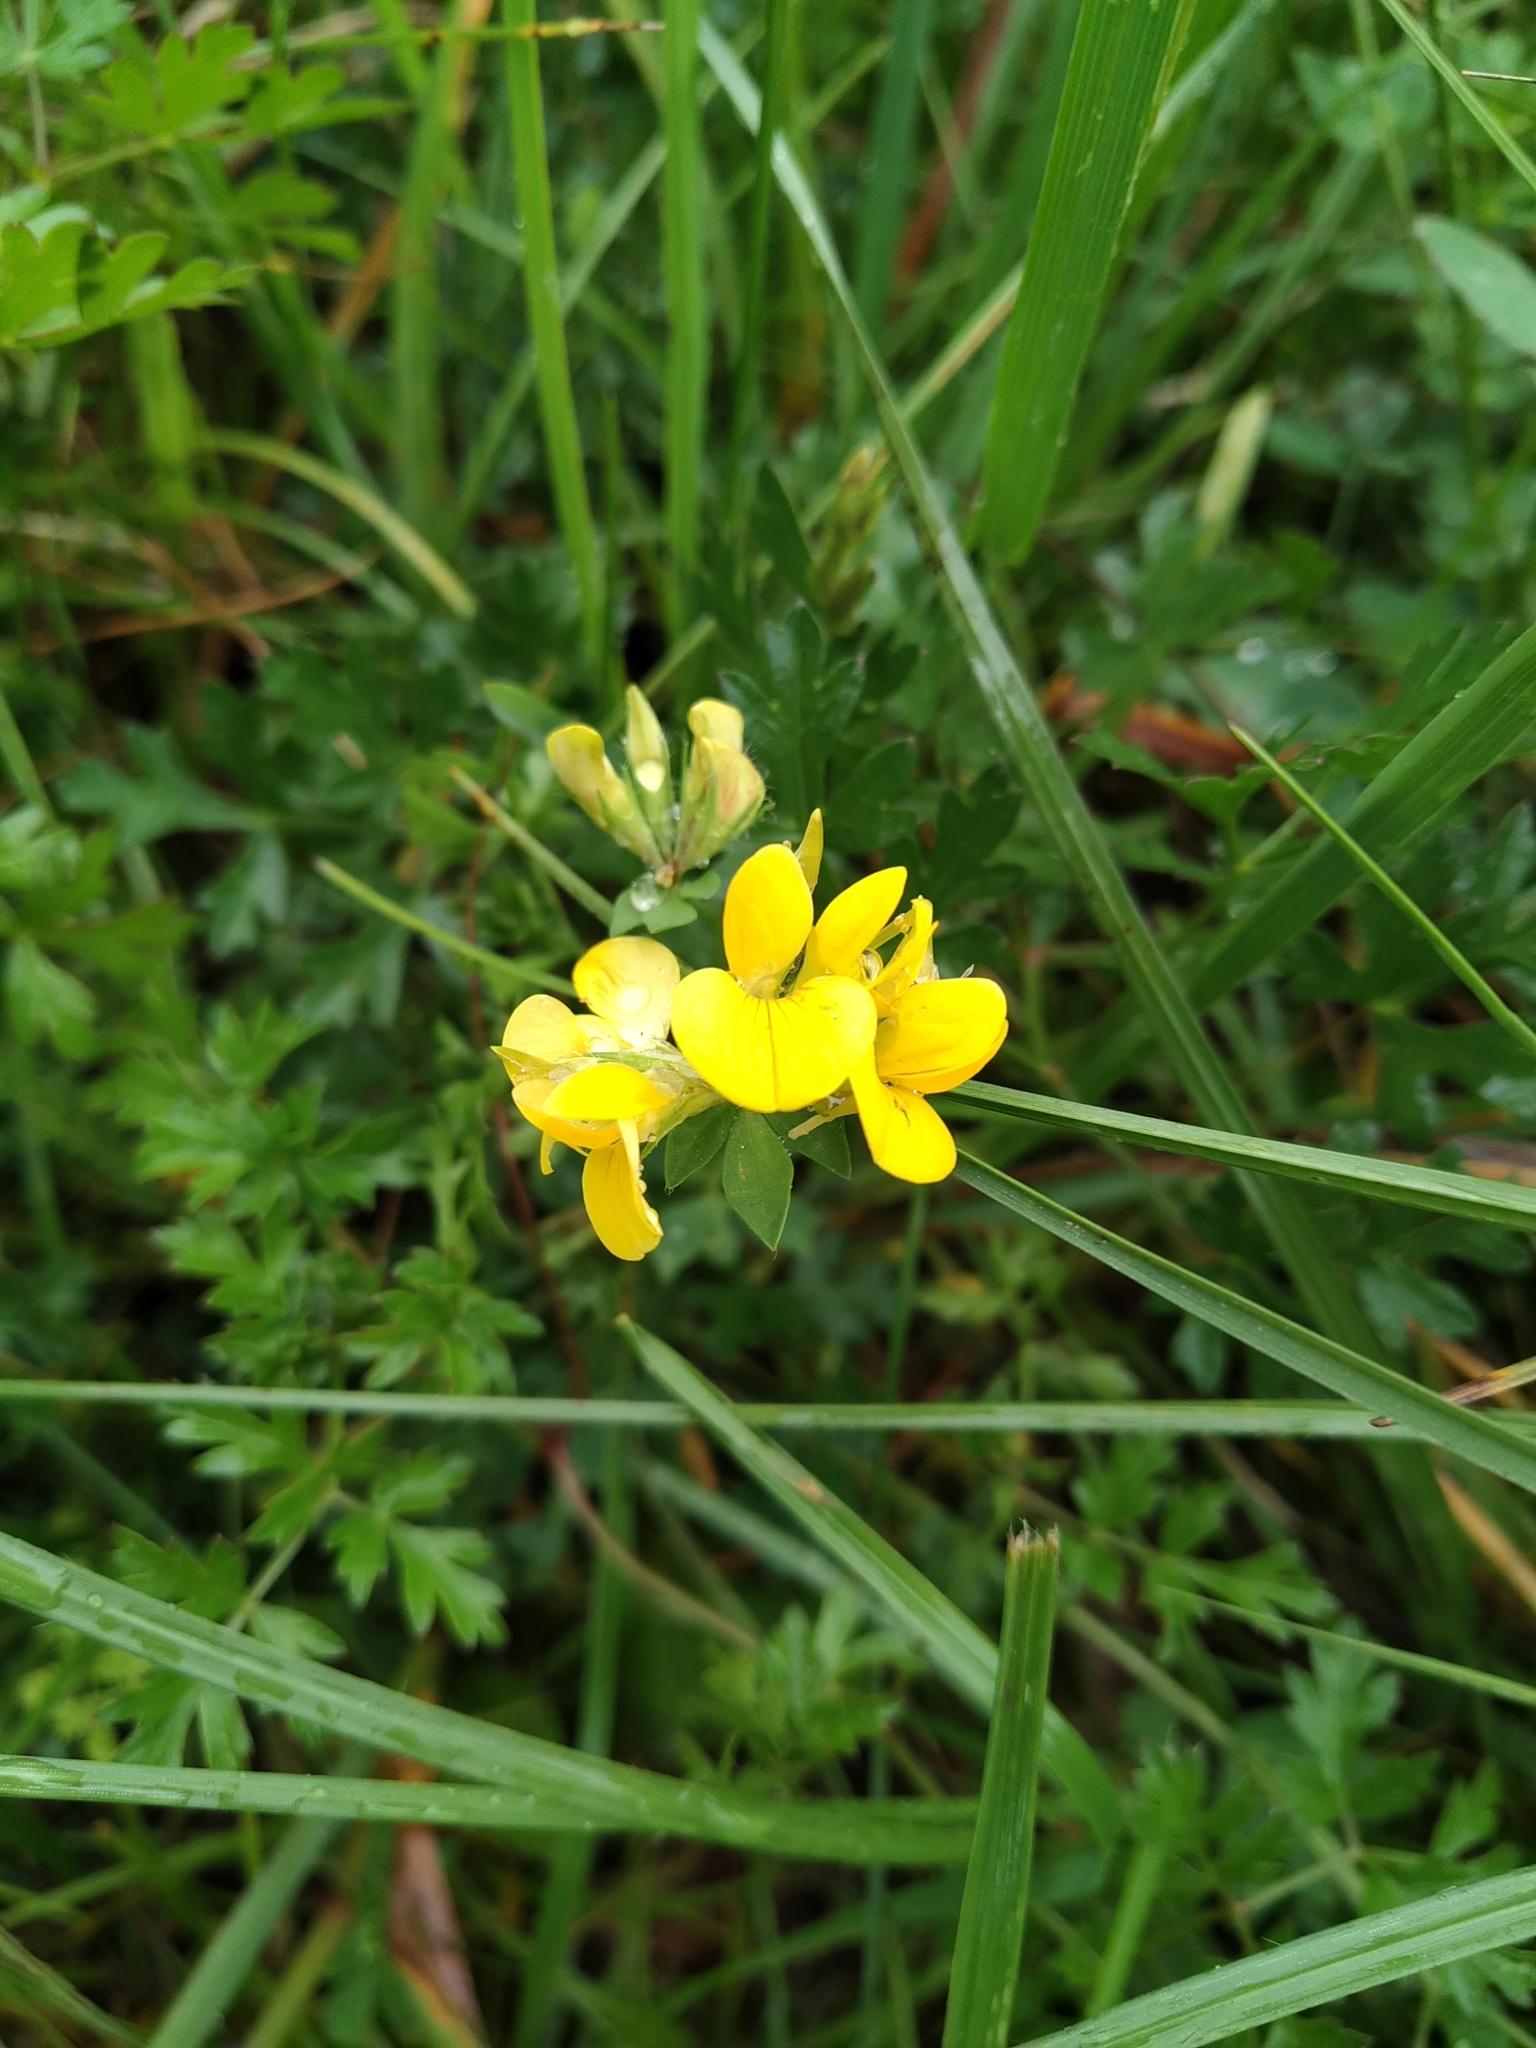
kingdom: Plantae
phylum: Tracheophyta
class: Magnoliopsida
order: Fabales
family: Fabaceae
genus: Lotus
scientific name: Lotus corniculatus
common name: Common bird's-foot-trefoil
